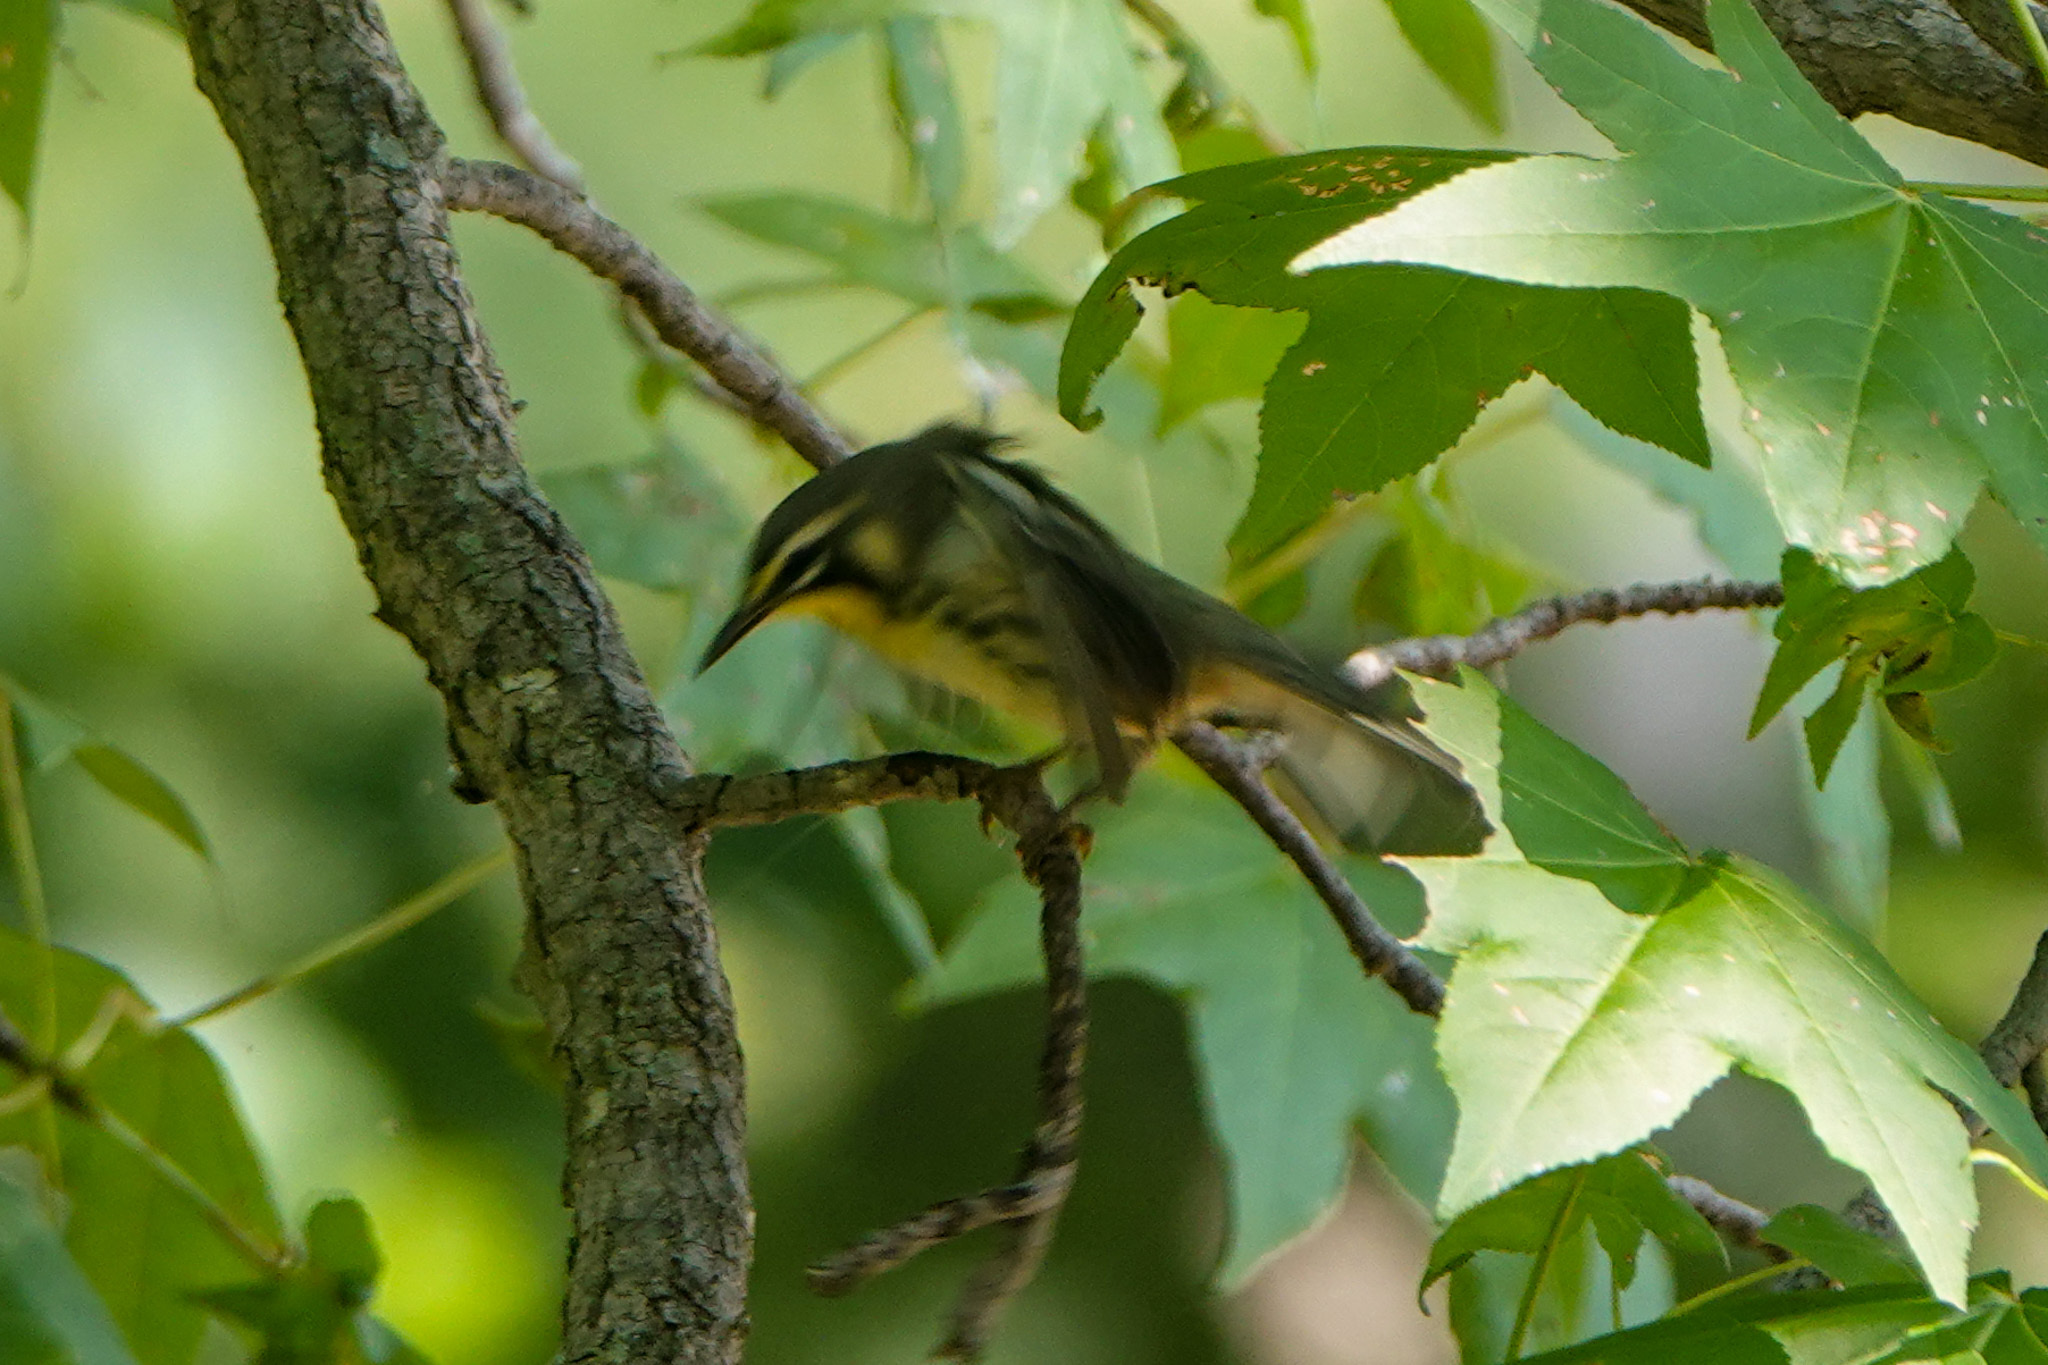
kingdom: Animalia
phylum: Chordata
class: Aves
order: Passeriformes
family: Parulidae
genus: Setophaga
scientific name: Setophaga dominica
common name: Yellow-throated warbler
